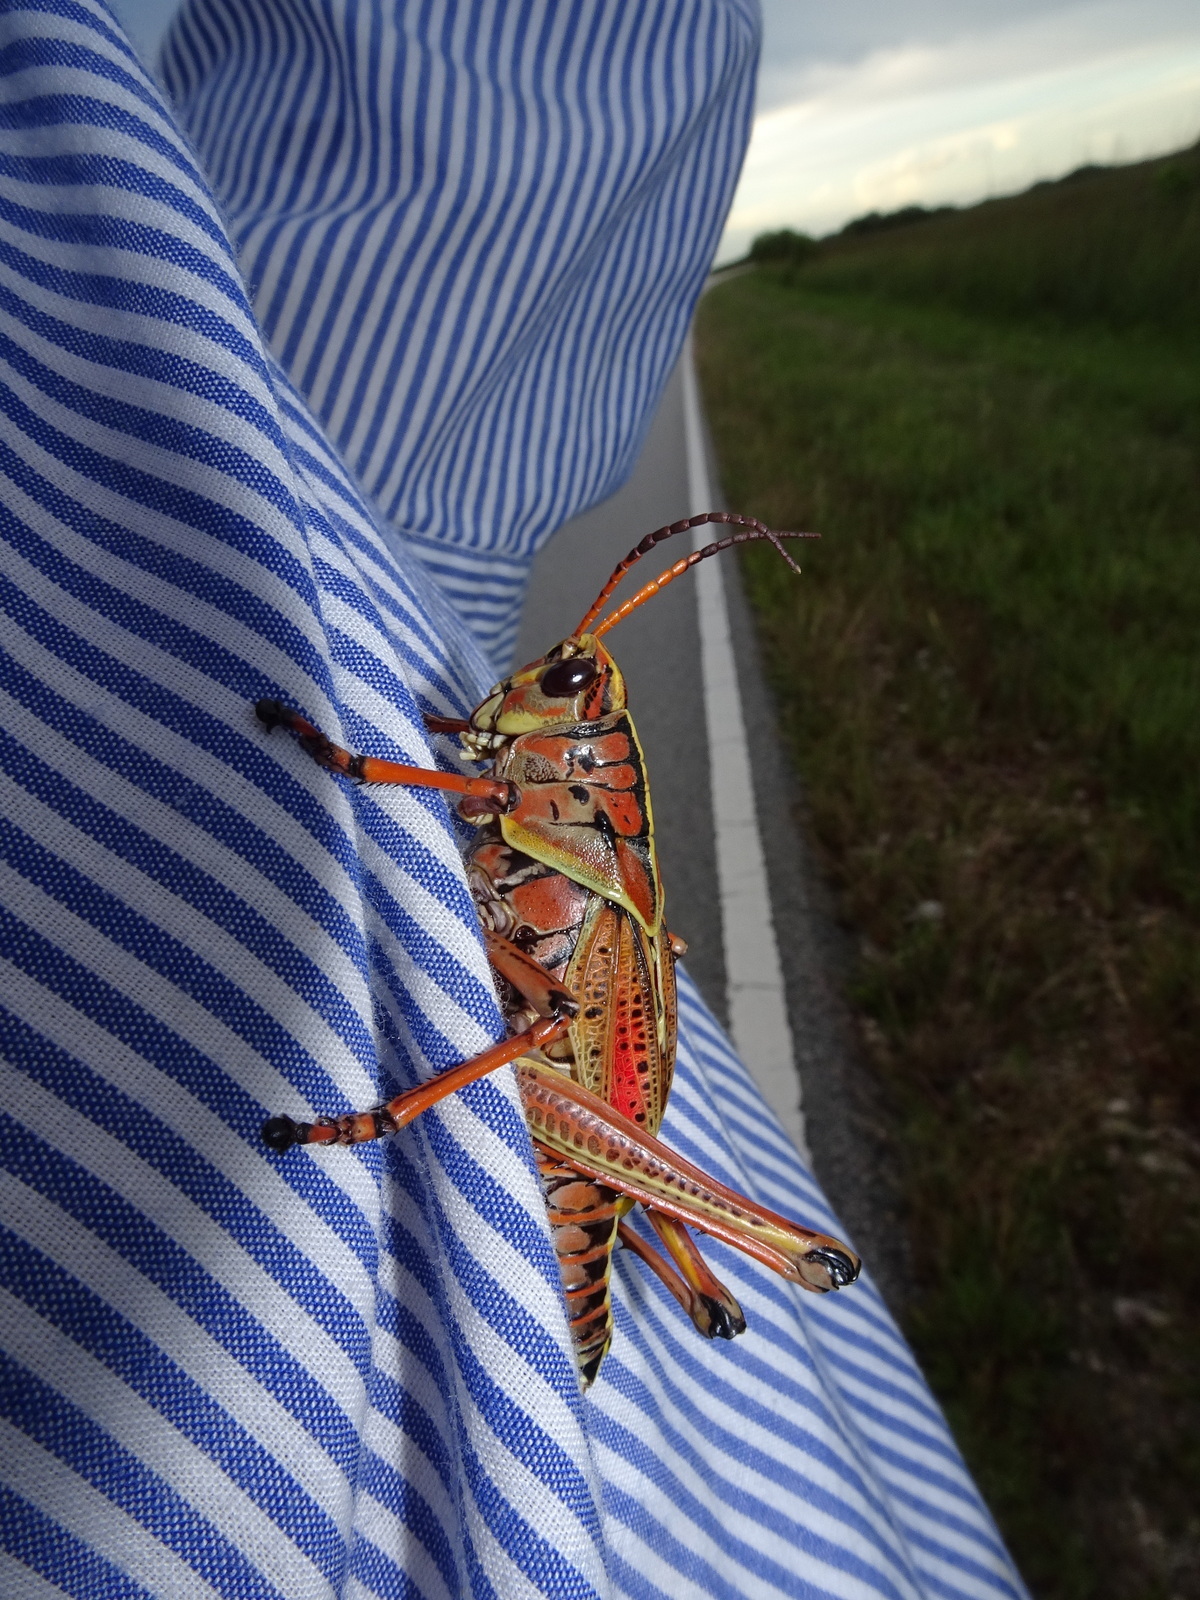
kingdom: Animalia
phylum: Arthropoda
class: Insecta
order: Orthoptera
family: Romaleidae
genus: Romalea
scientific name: Romalea microptera
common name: Eastern lubber grasshopper
